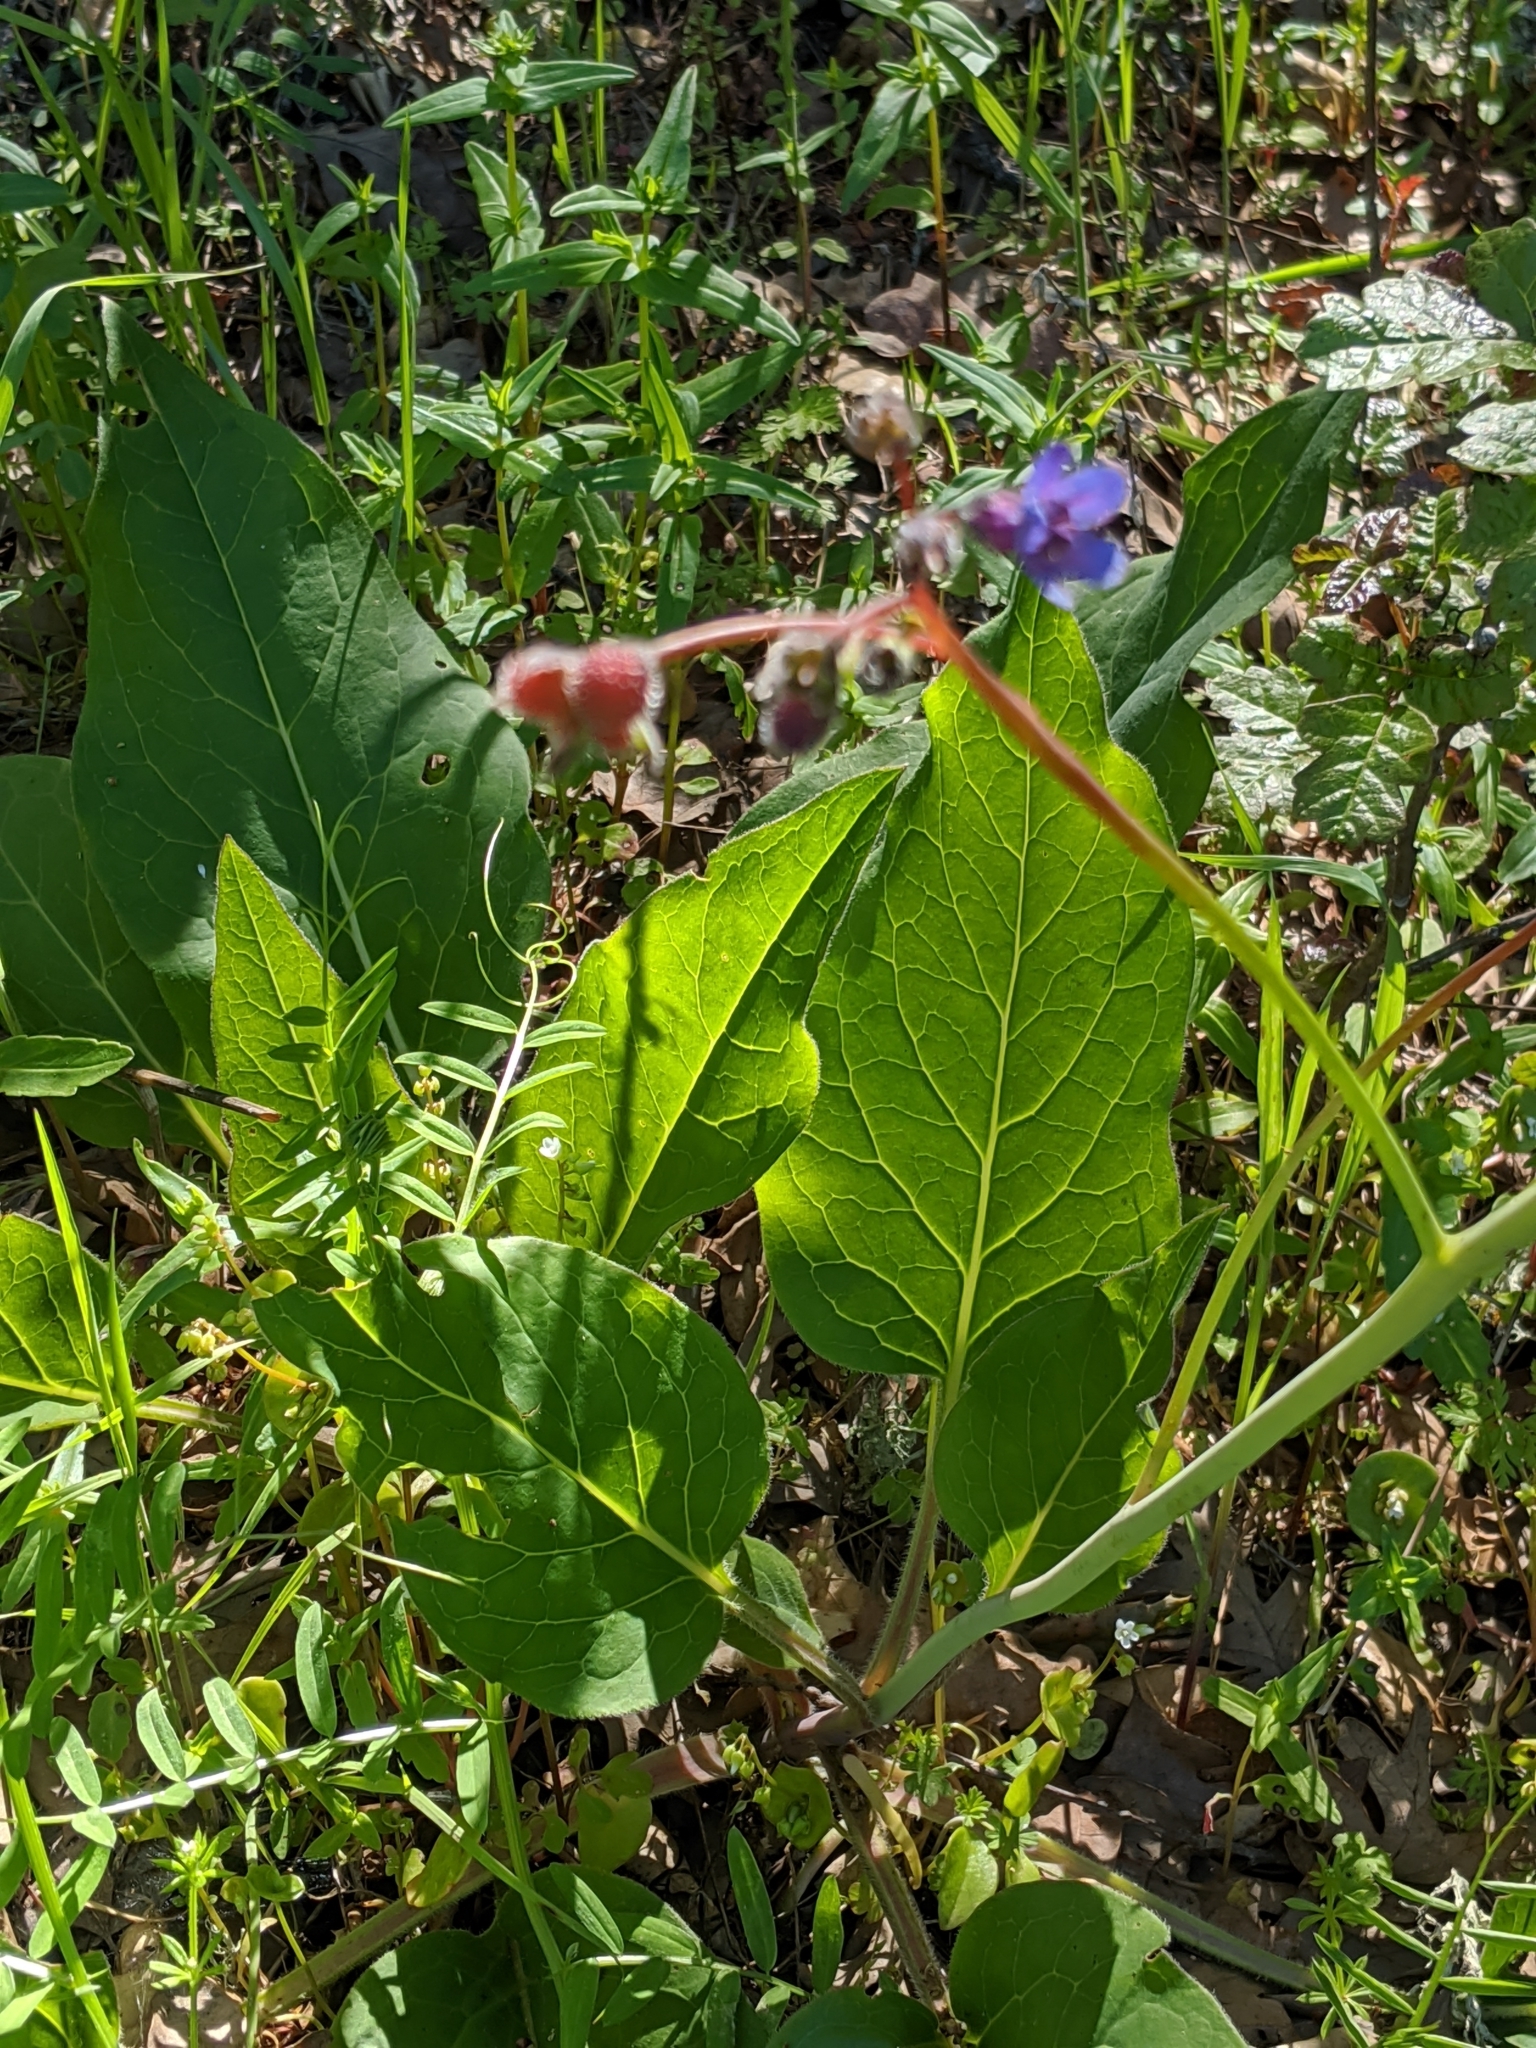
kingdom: Plantae
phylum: Tracheophyta
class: Magnoliopsida
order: Boraginales
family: Boraginaceae
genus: Adelinia
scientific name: Adelinia grande
